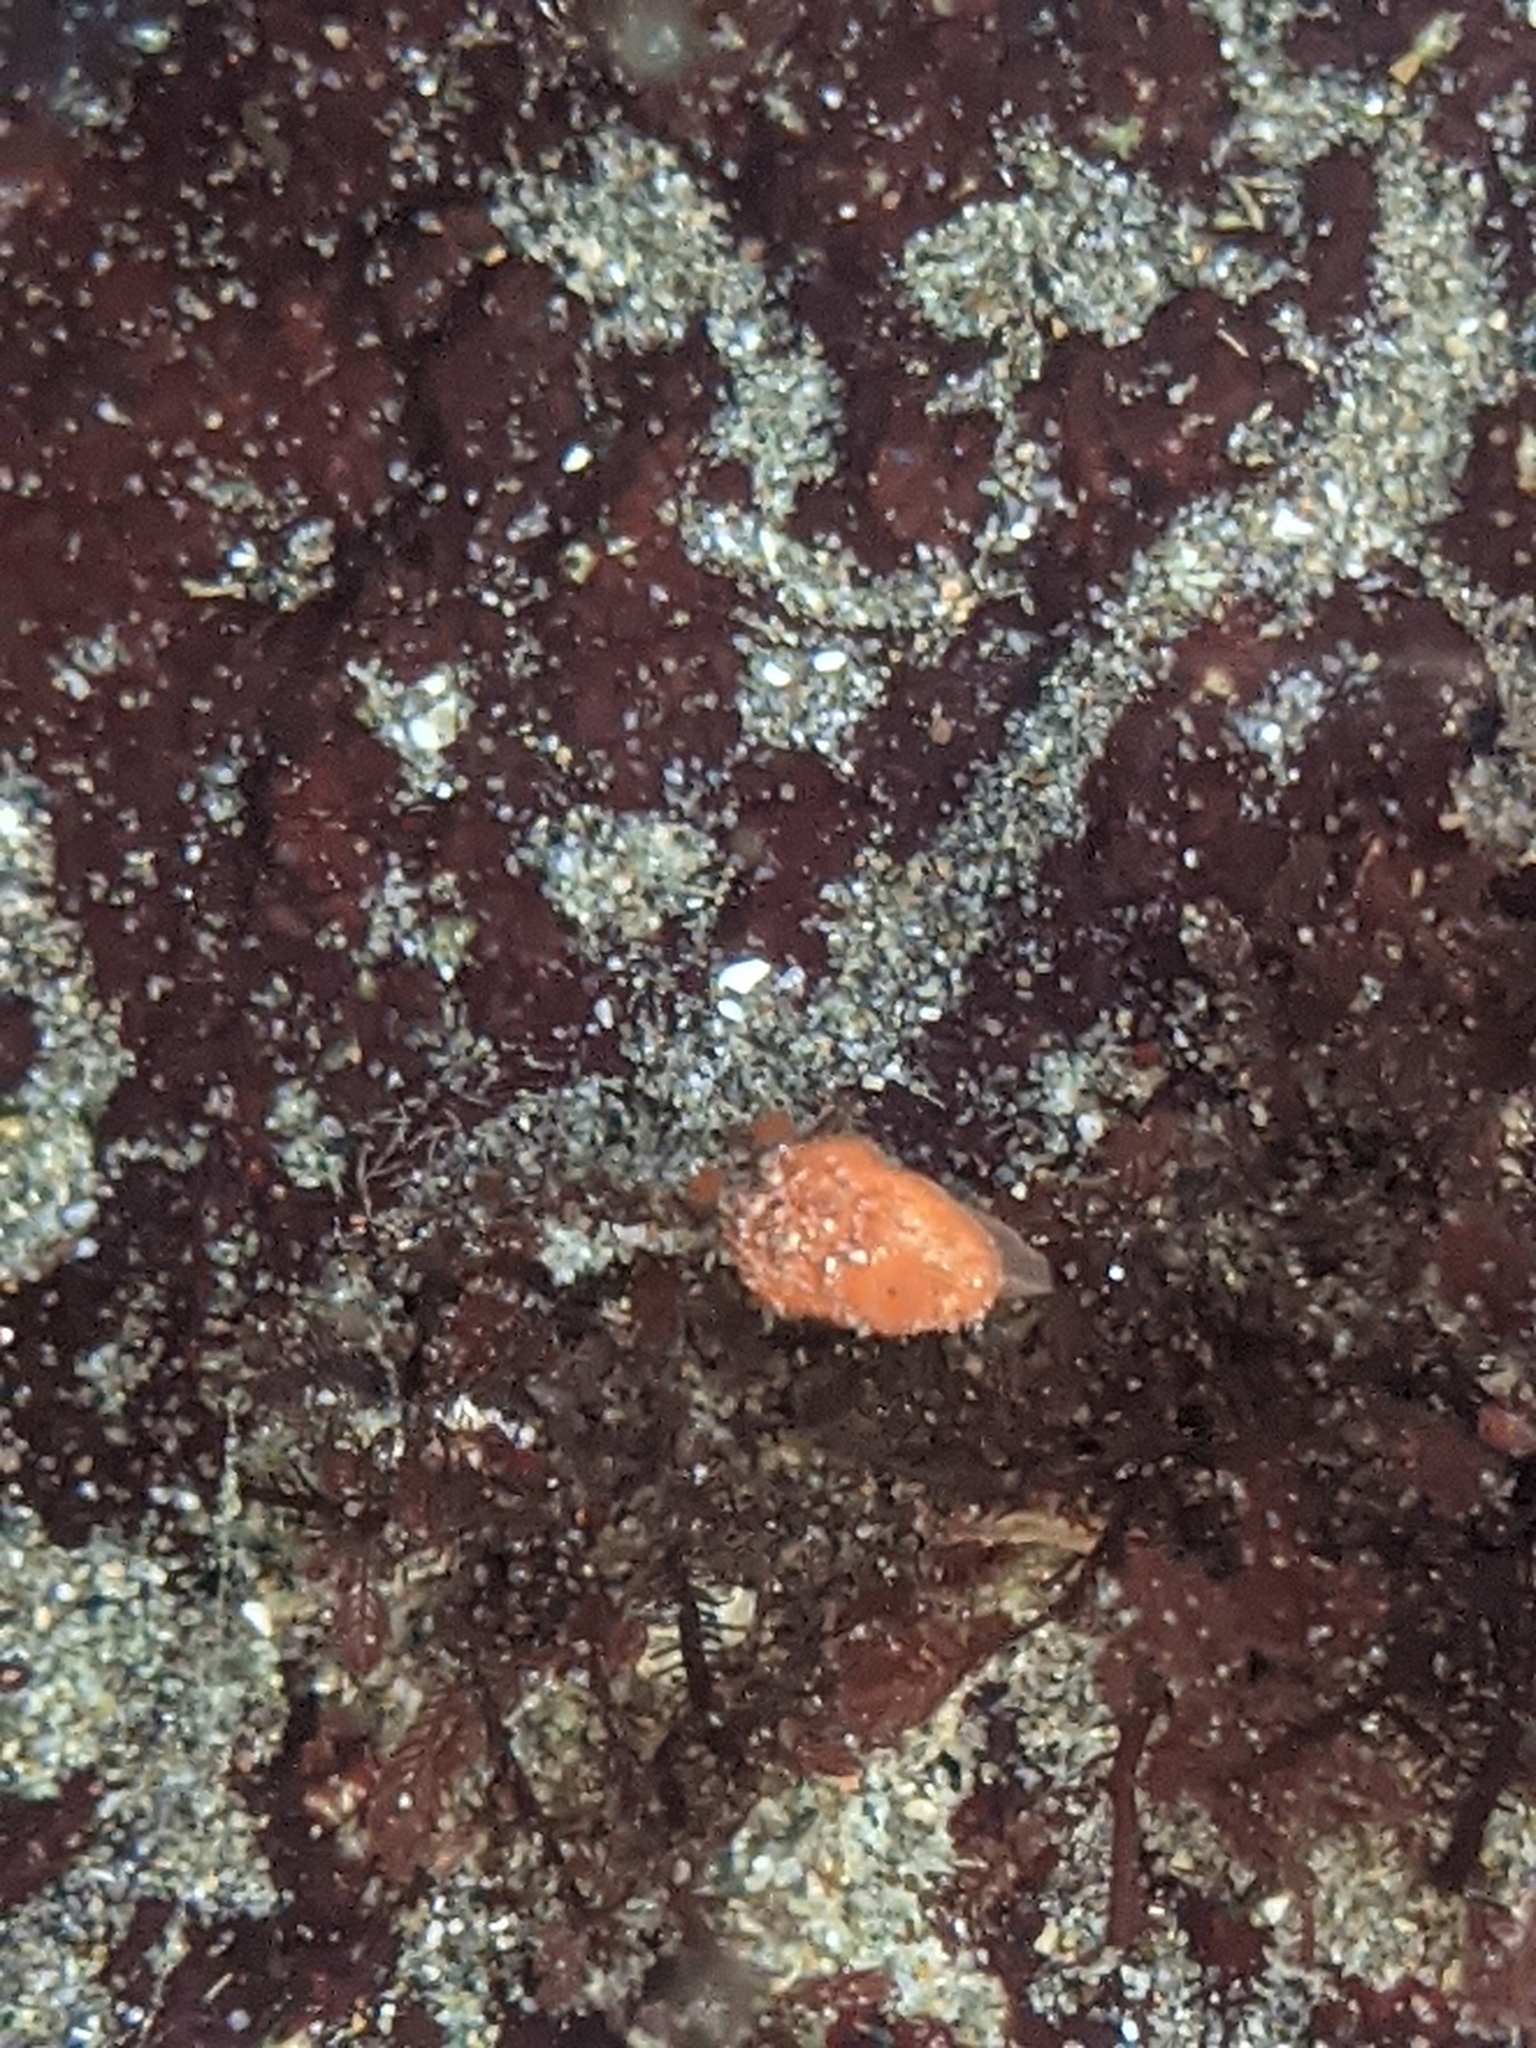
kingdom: Animalia
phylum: Mollusca
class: Gastropoda
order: Nudibranchia
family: Discodorididae
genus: Rostanga
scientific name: Rostanga pulchra
